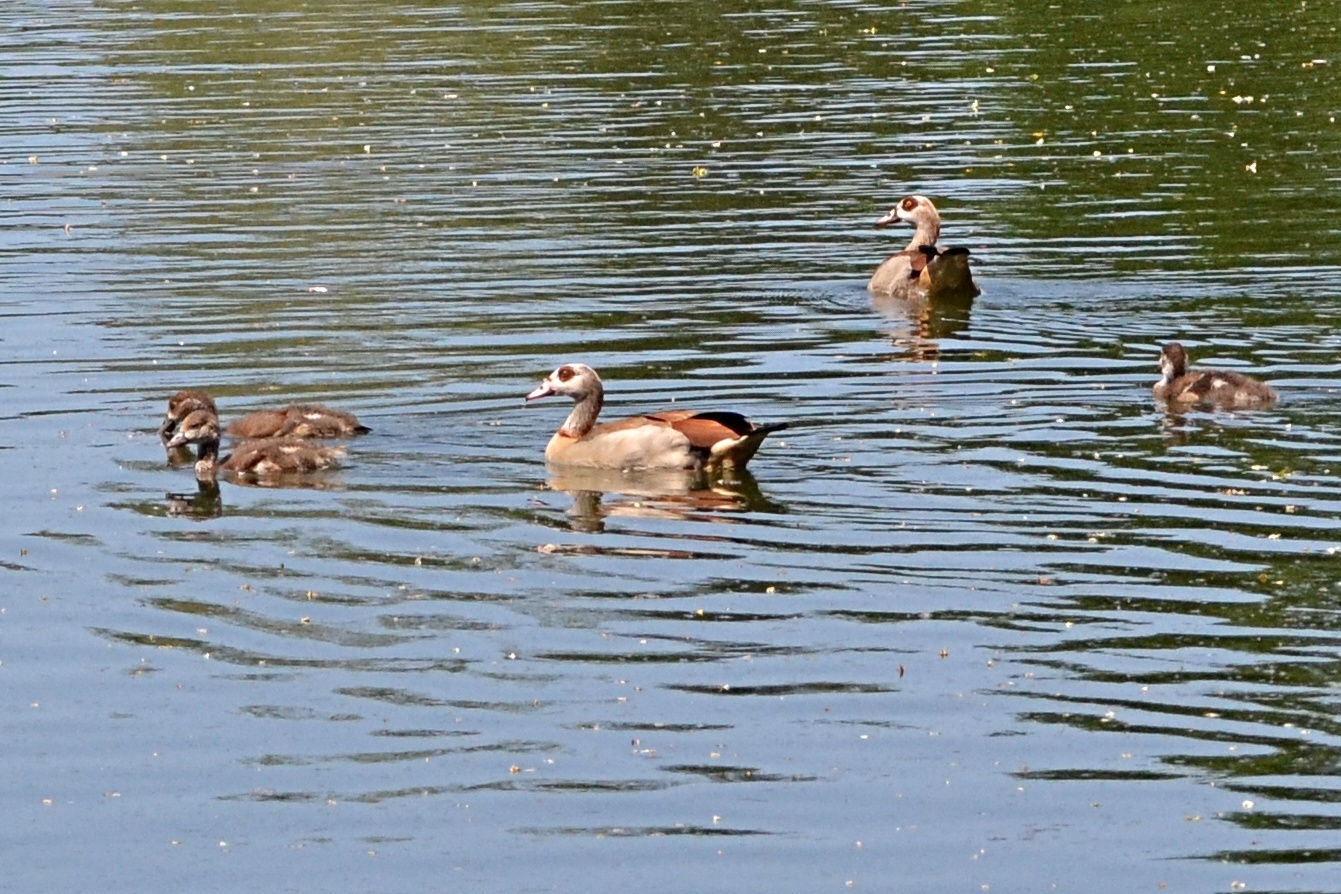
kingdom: Animalia
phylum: Chordata
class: Aves
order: Anseriformes
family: Anatidae
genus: Alopochen
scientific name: Alopochen aegyptiaca
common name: Egyptian goose
